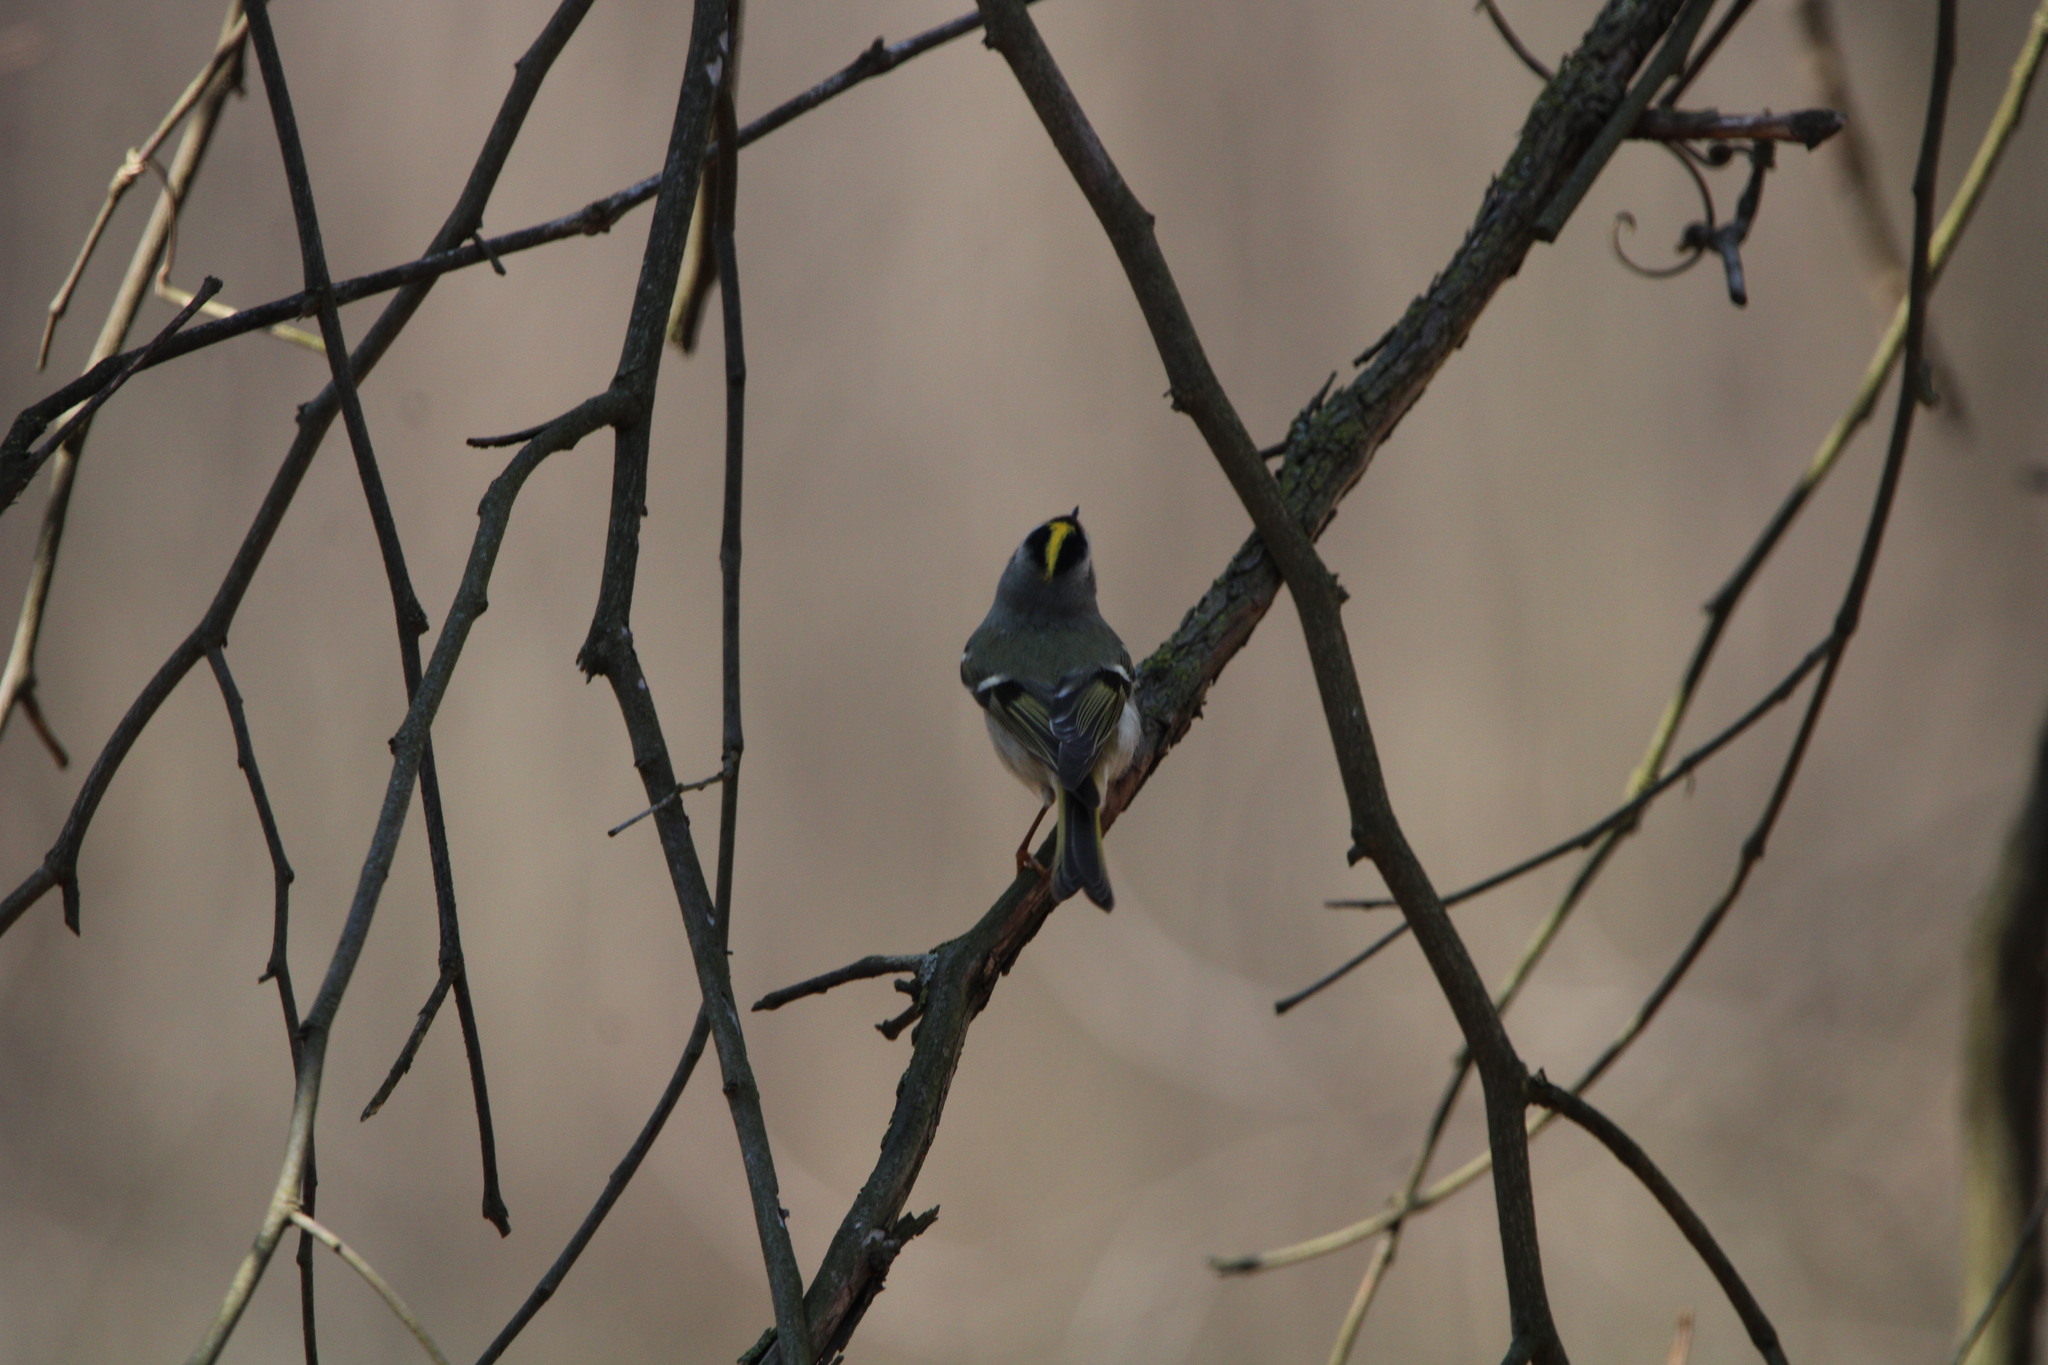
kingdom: Animalia
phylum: Chordata
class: Aves
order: Passeriformes
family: Regulidae
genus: Regulus
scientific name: Regulus satrapa
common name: Golden-crowned kinglet
